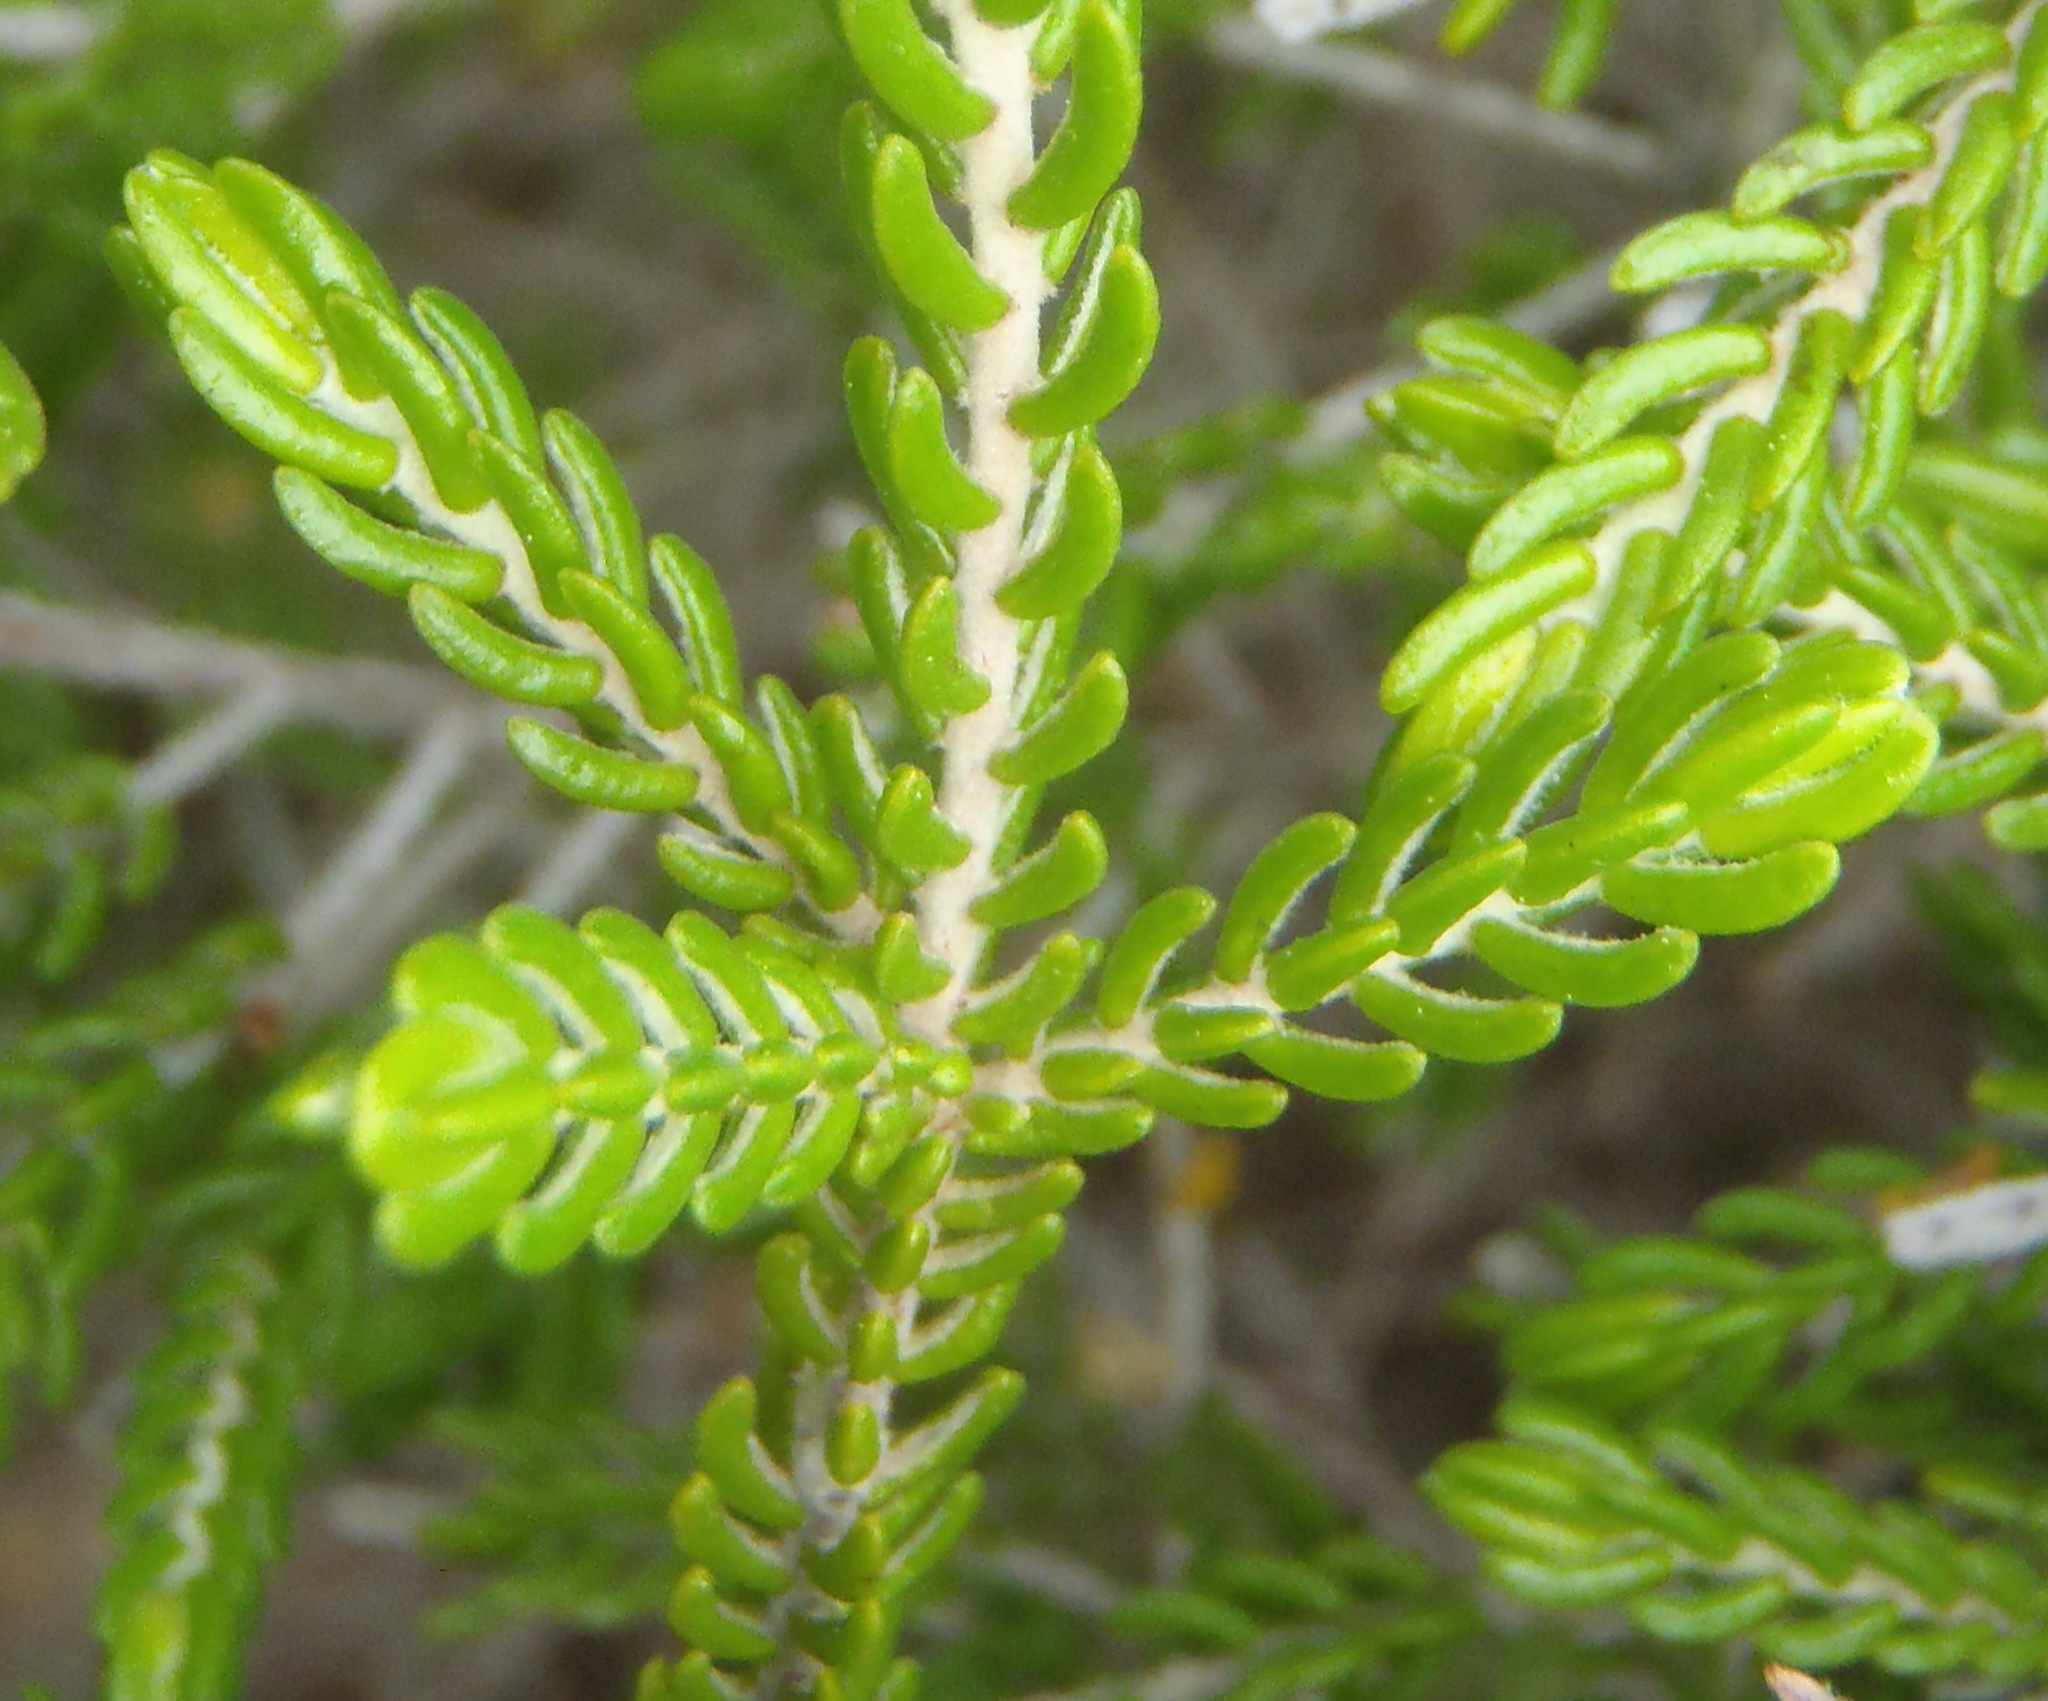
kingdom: Plantae
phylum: Tracheophyta
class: Magnoliopsida
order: Malvales
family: Thymelaeaceae
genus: Passerina
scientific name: Passerina galpinii
